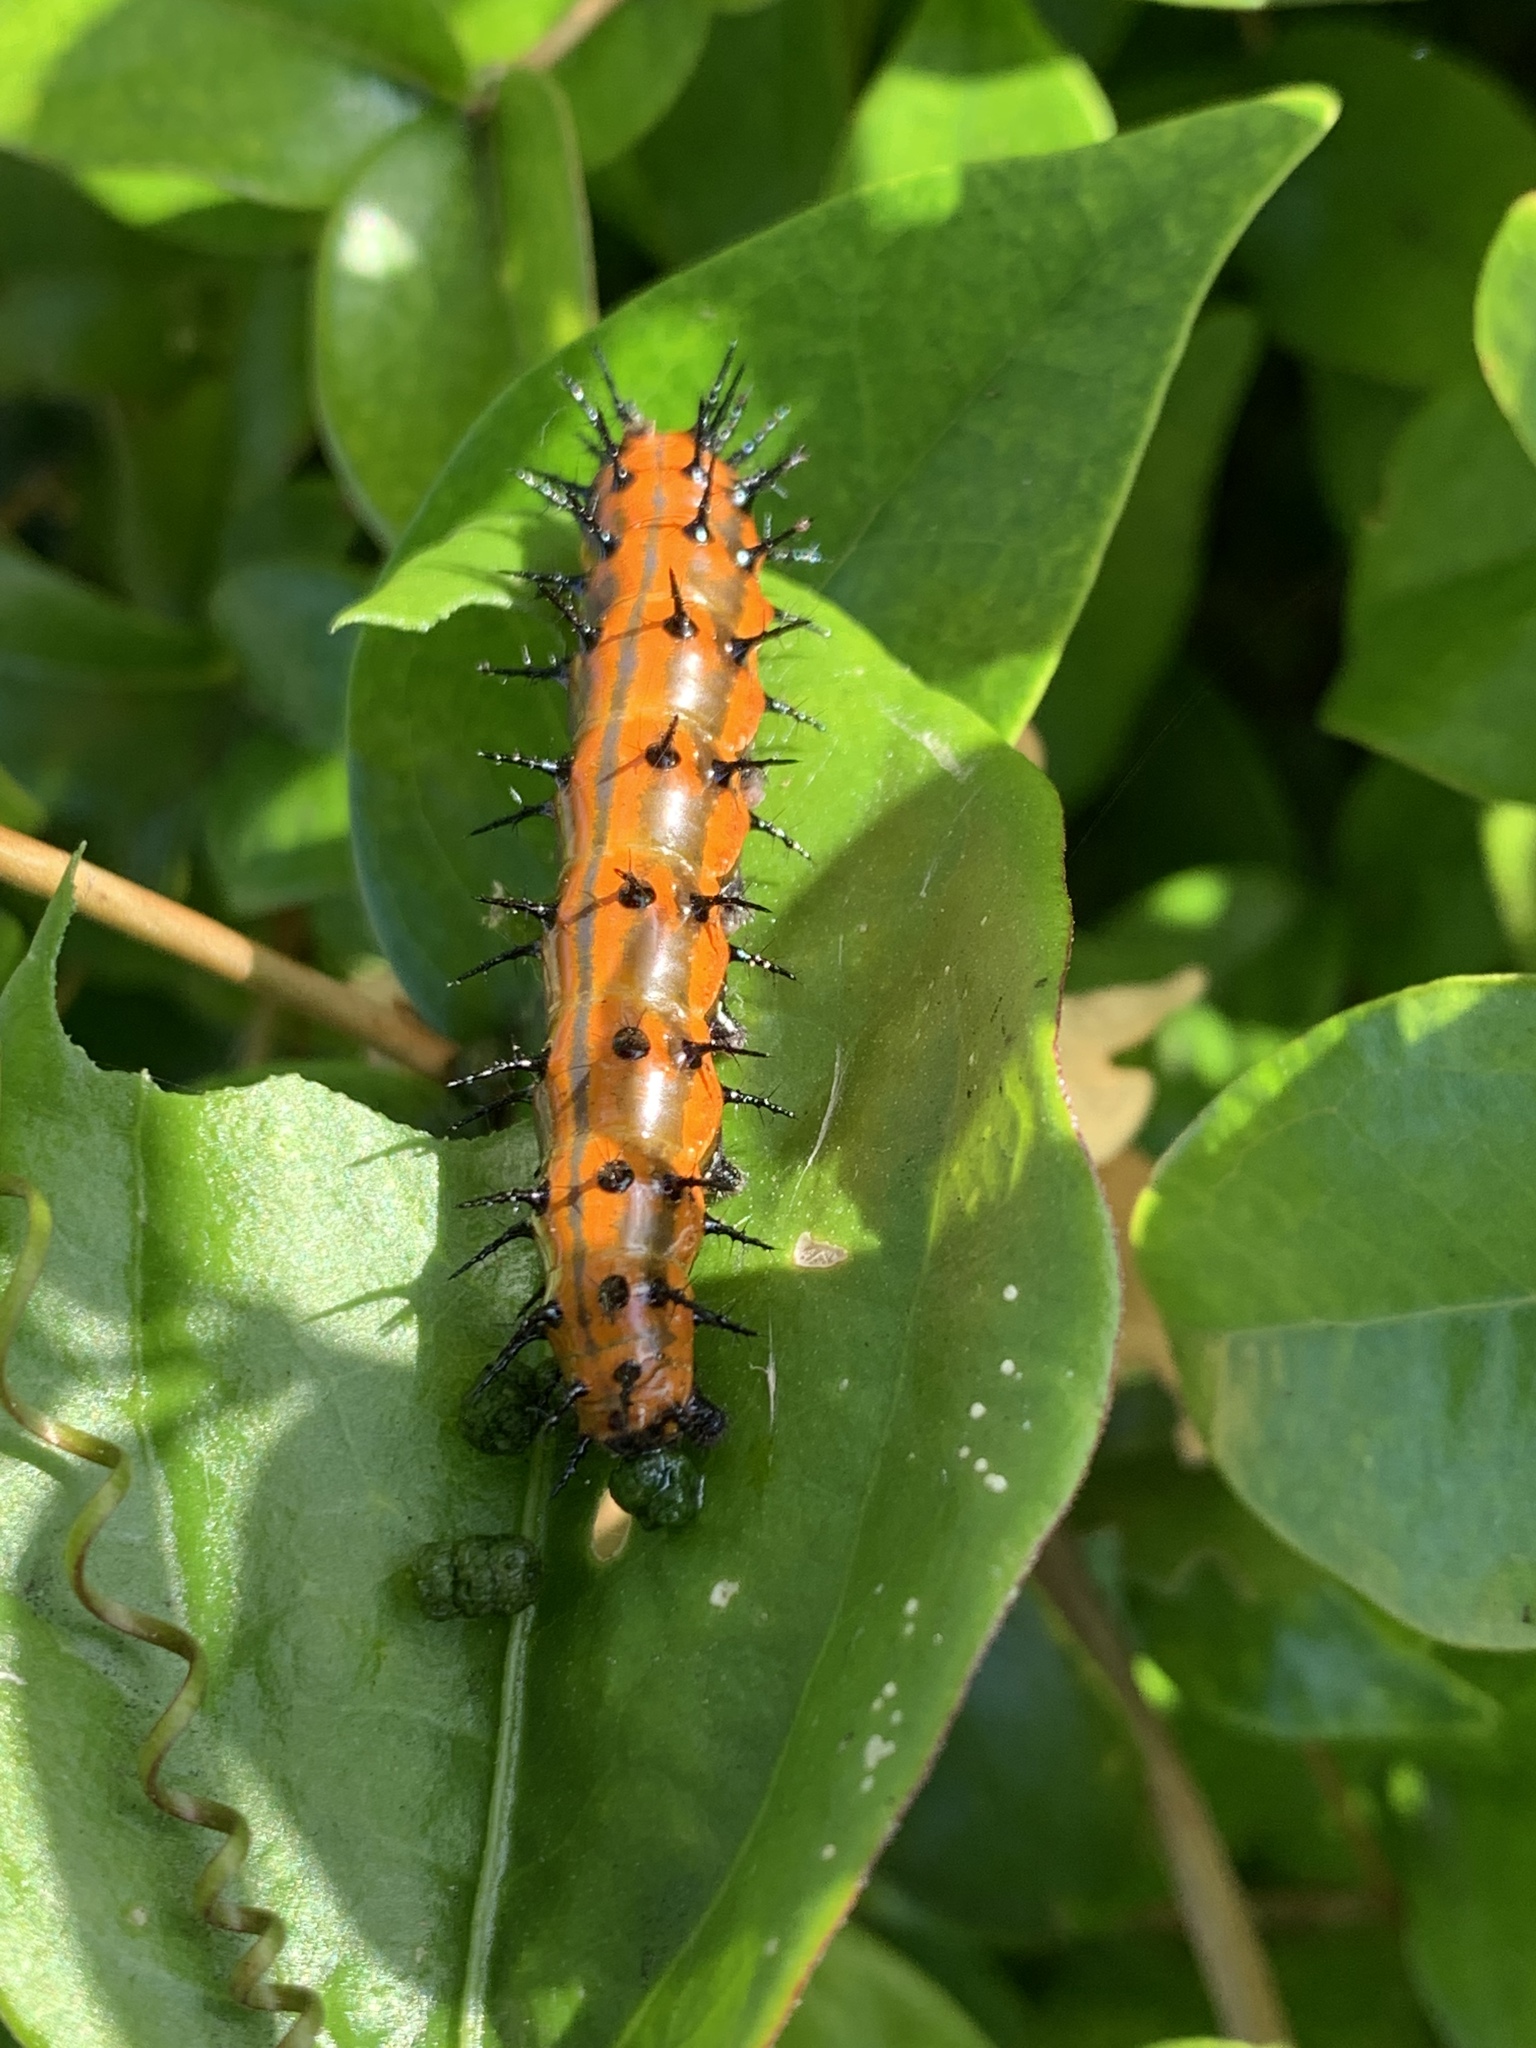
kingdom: Animalia
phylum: Arthropoda
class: Insecta
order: Lepidoptera
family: Nymphalidae
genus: Dione
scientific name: Dione vanillae
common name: Gulf fritillary
